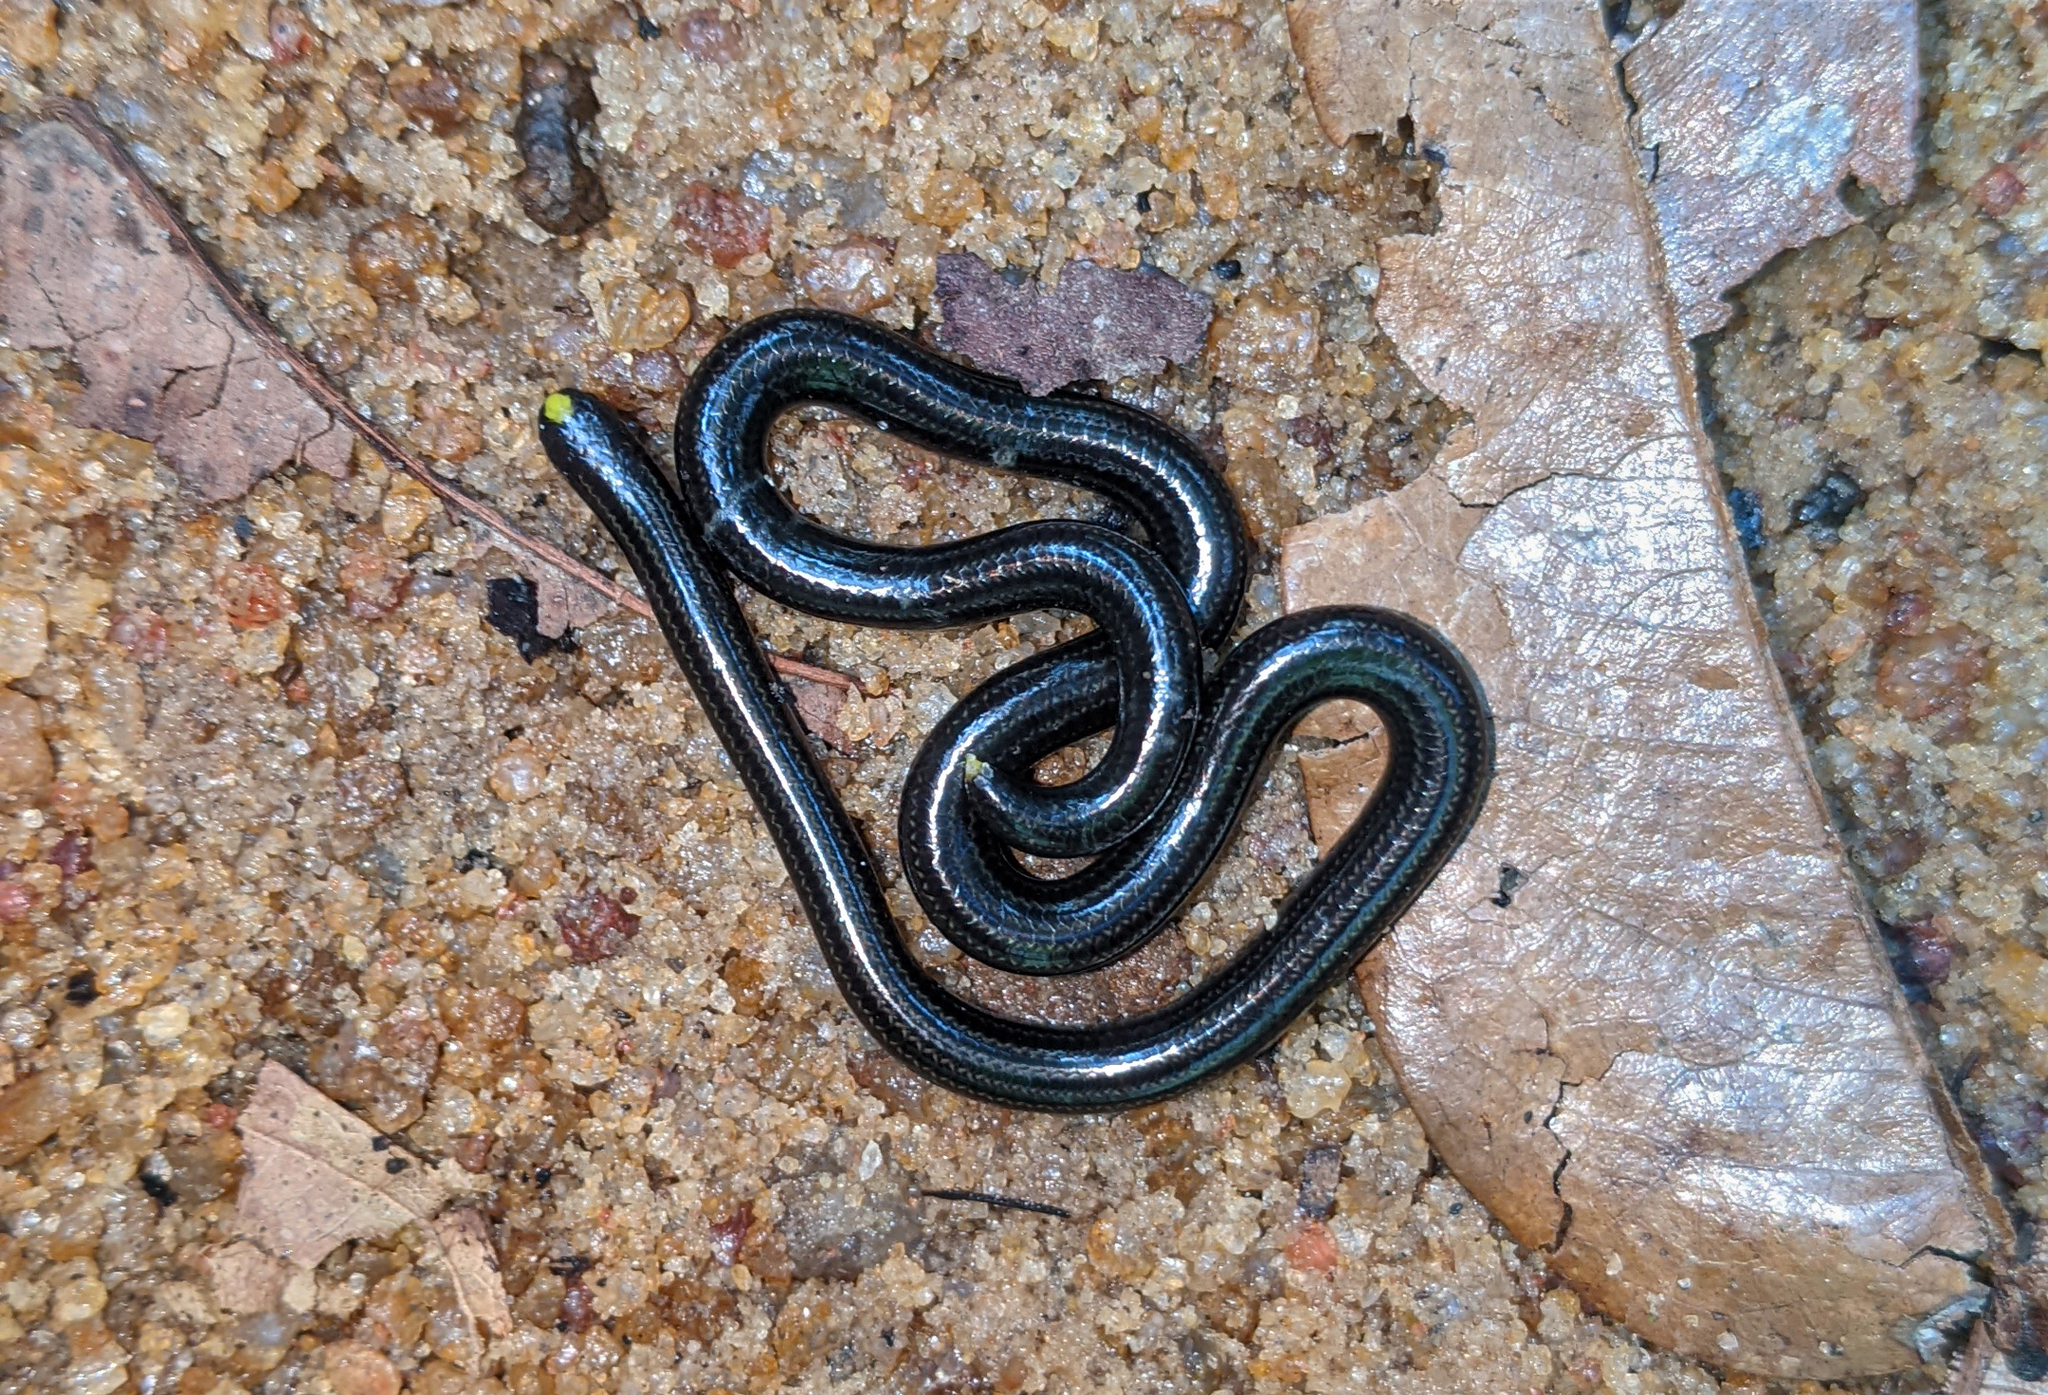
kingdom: Animalia
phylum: Chordata
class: Squamata
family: Leptotyphlopidae
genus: Epictia
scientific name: Epictia tenella
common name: Guyana blind snake
